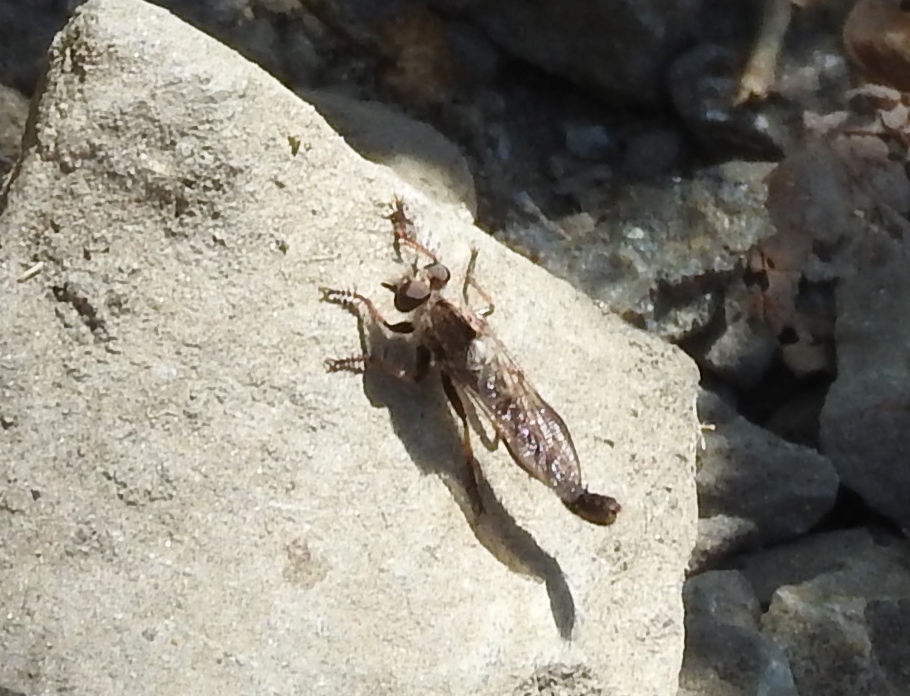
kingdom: Animalia
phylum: Arthropoda
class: Insecta
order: Diptera
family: Asilidae
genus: Efferia
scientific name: Efferia
